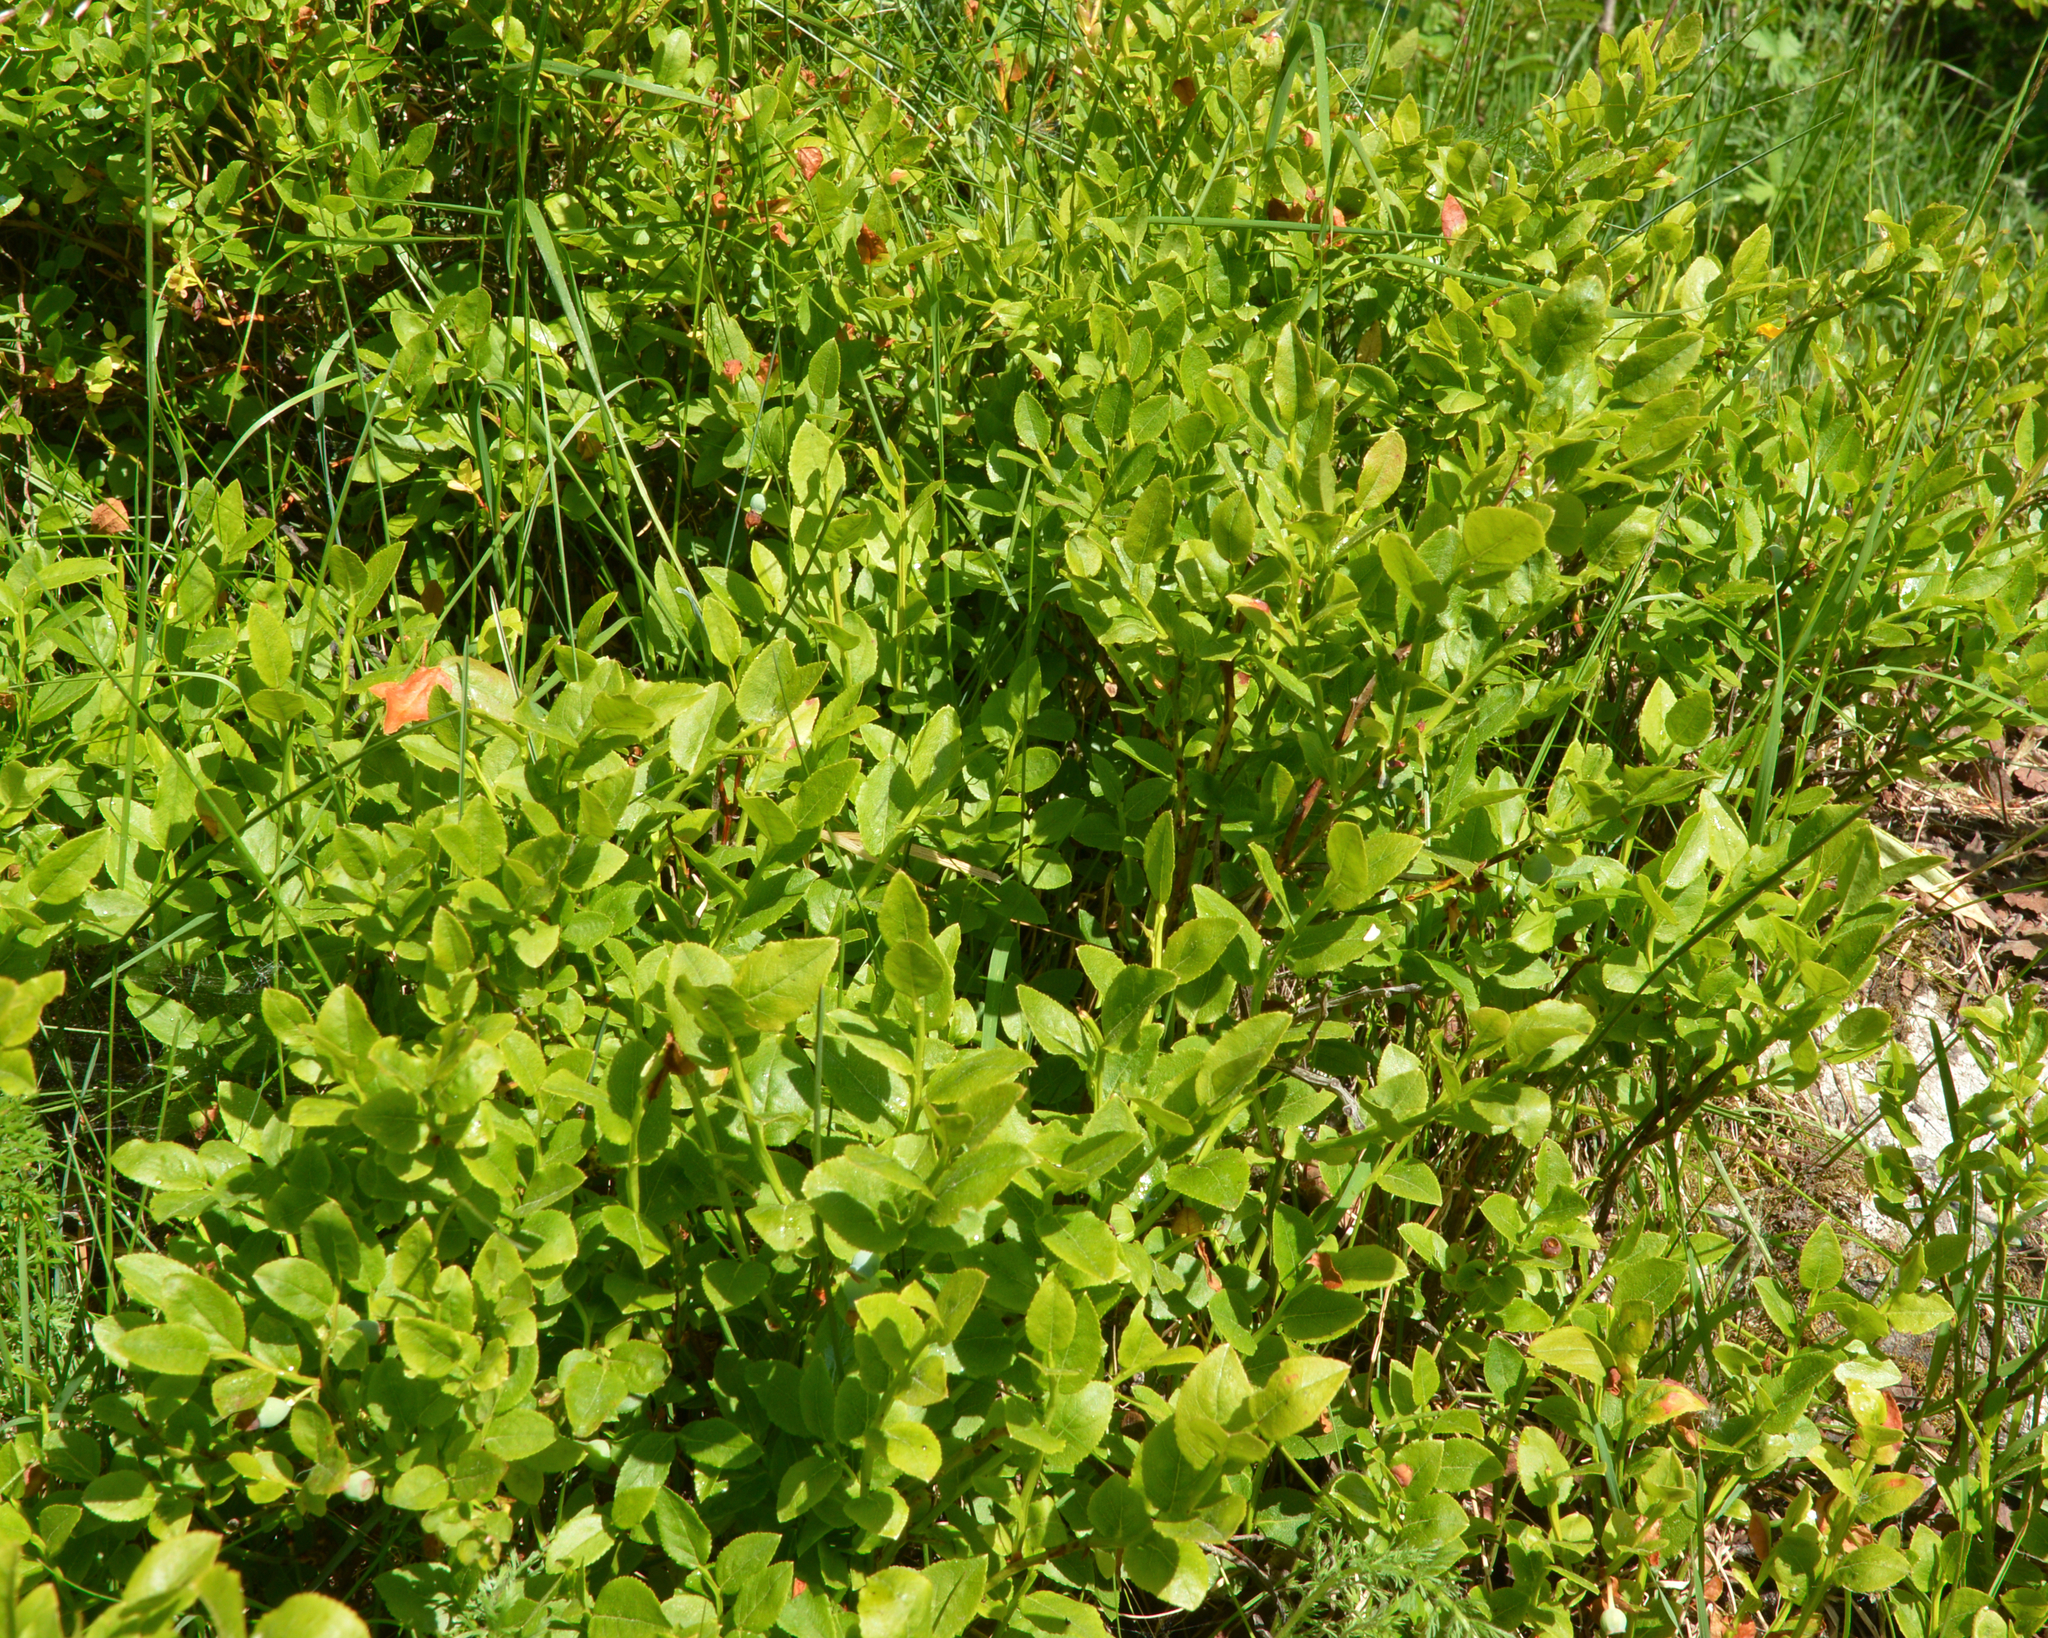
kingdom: Plantae
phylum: Tracheophyta
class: Magnoliopsida
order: Ericales
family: Ericaceae
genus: Vaccinium
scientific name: Vaccinium myrtillus
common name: Bilberry
